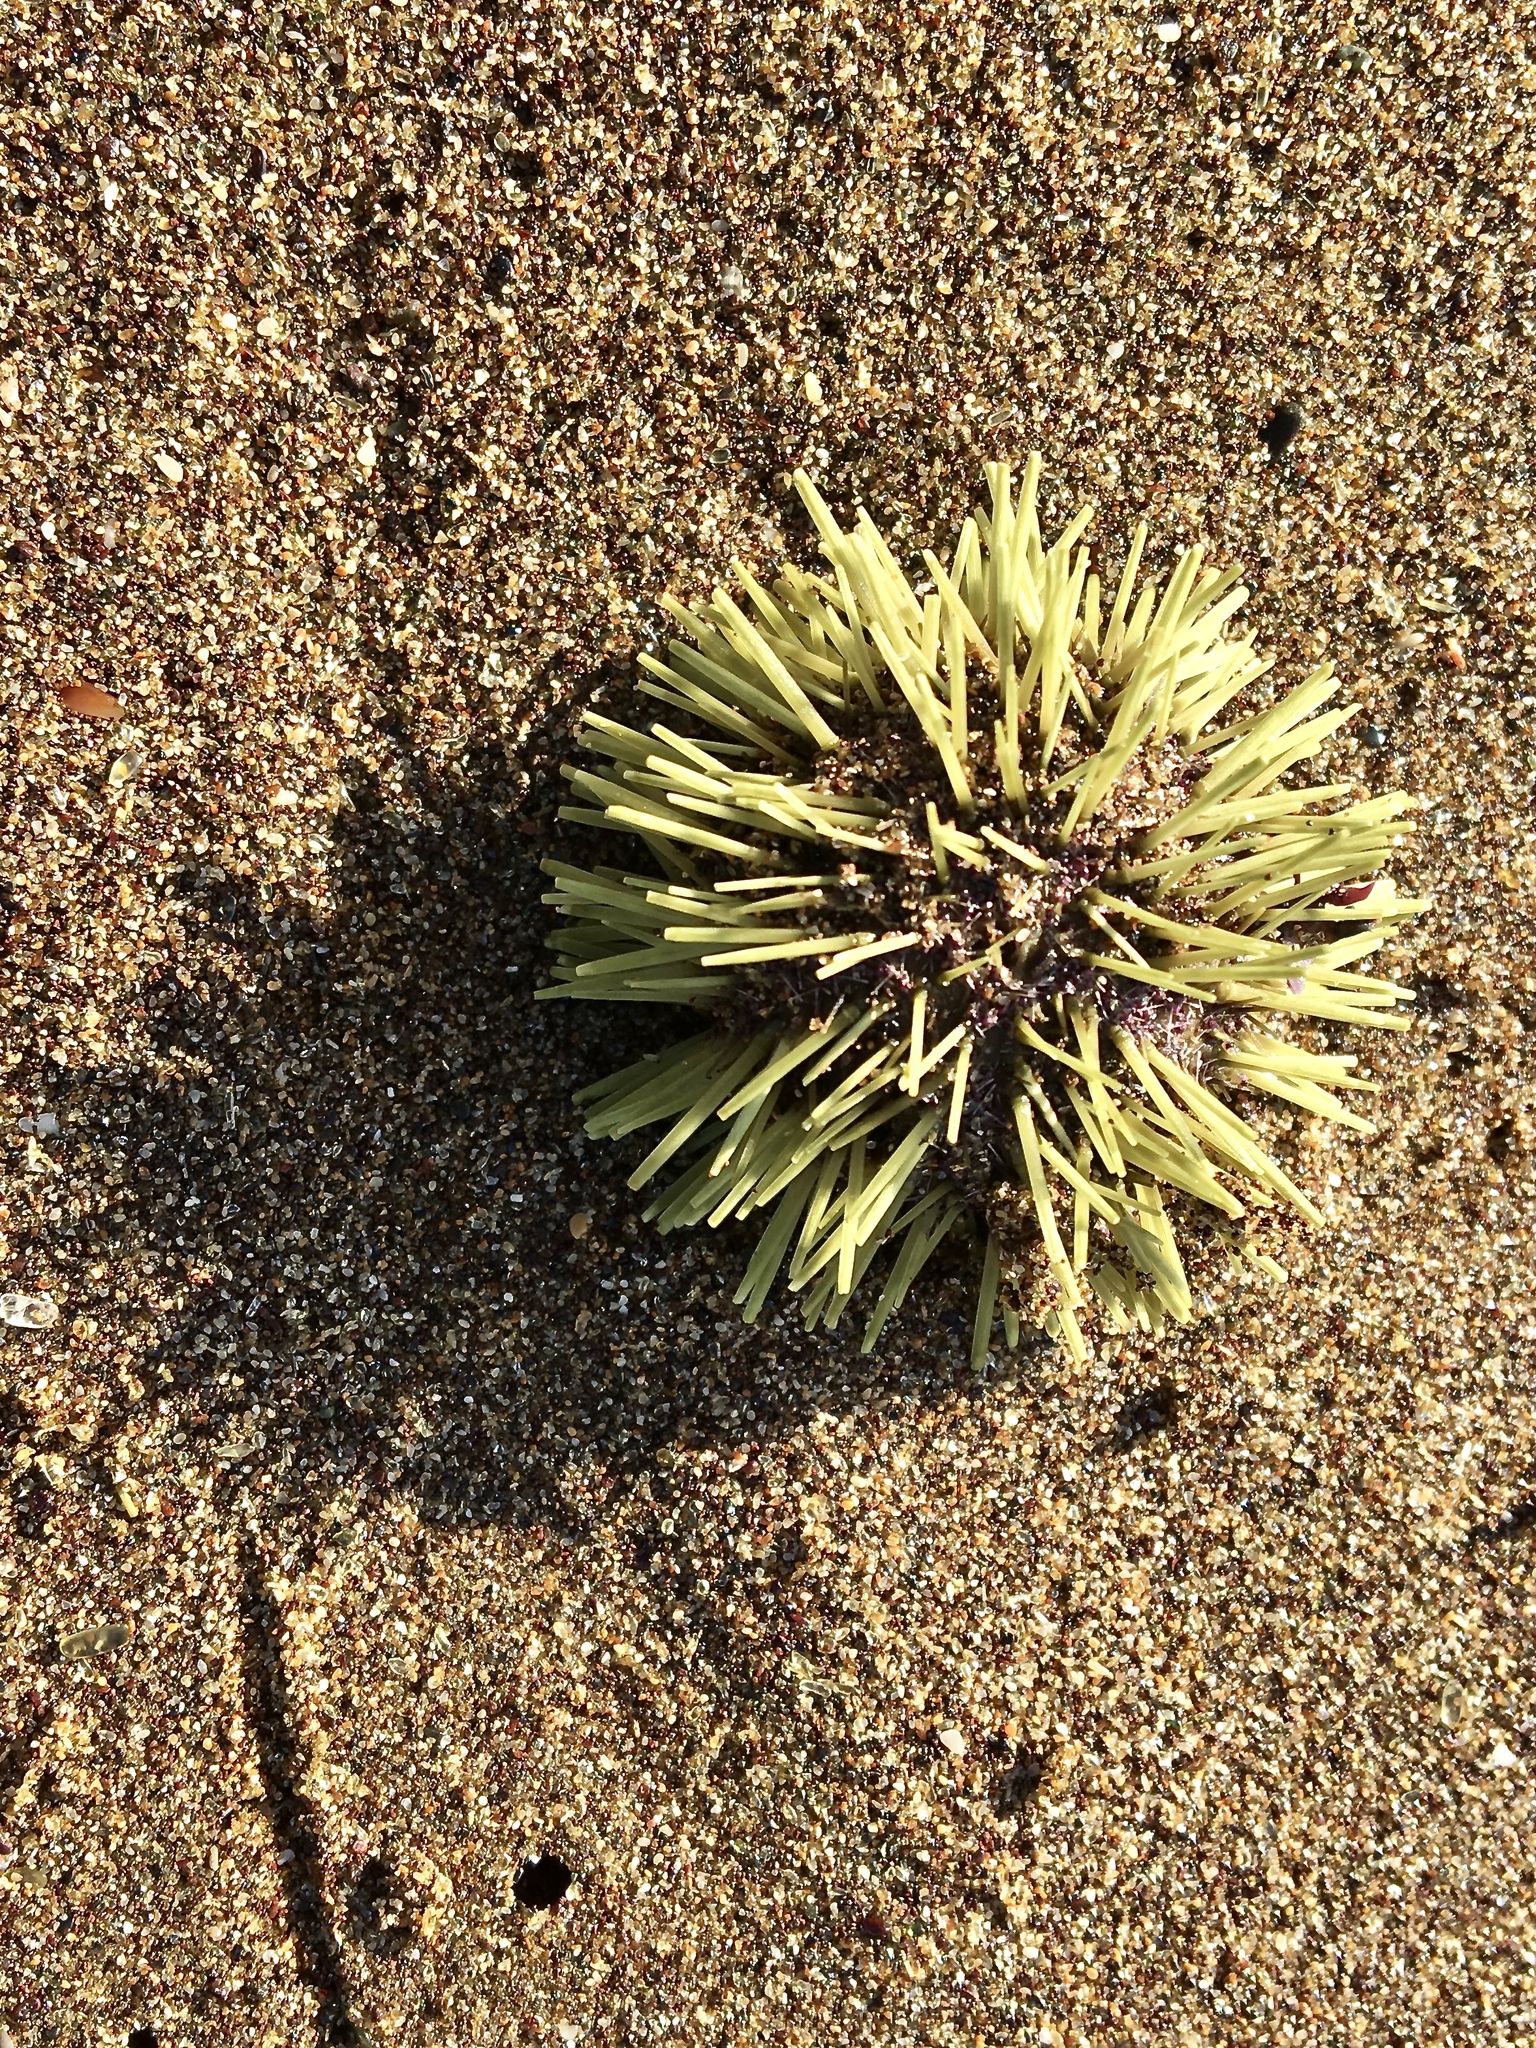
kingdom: Animalia
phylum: Echinodermata
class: Echinoidea
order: Camarodonta
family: Toxopneustidae
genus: Lytechinus
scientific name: Lytechinus semituberculatus
